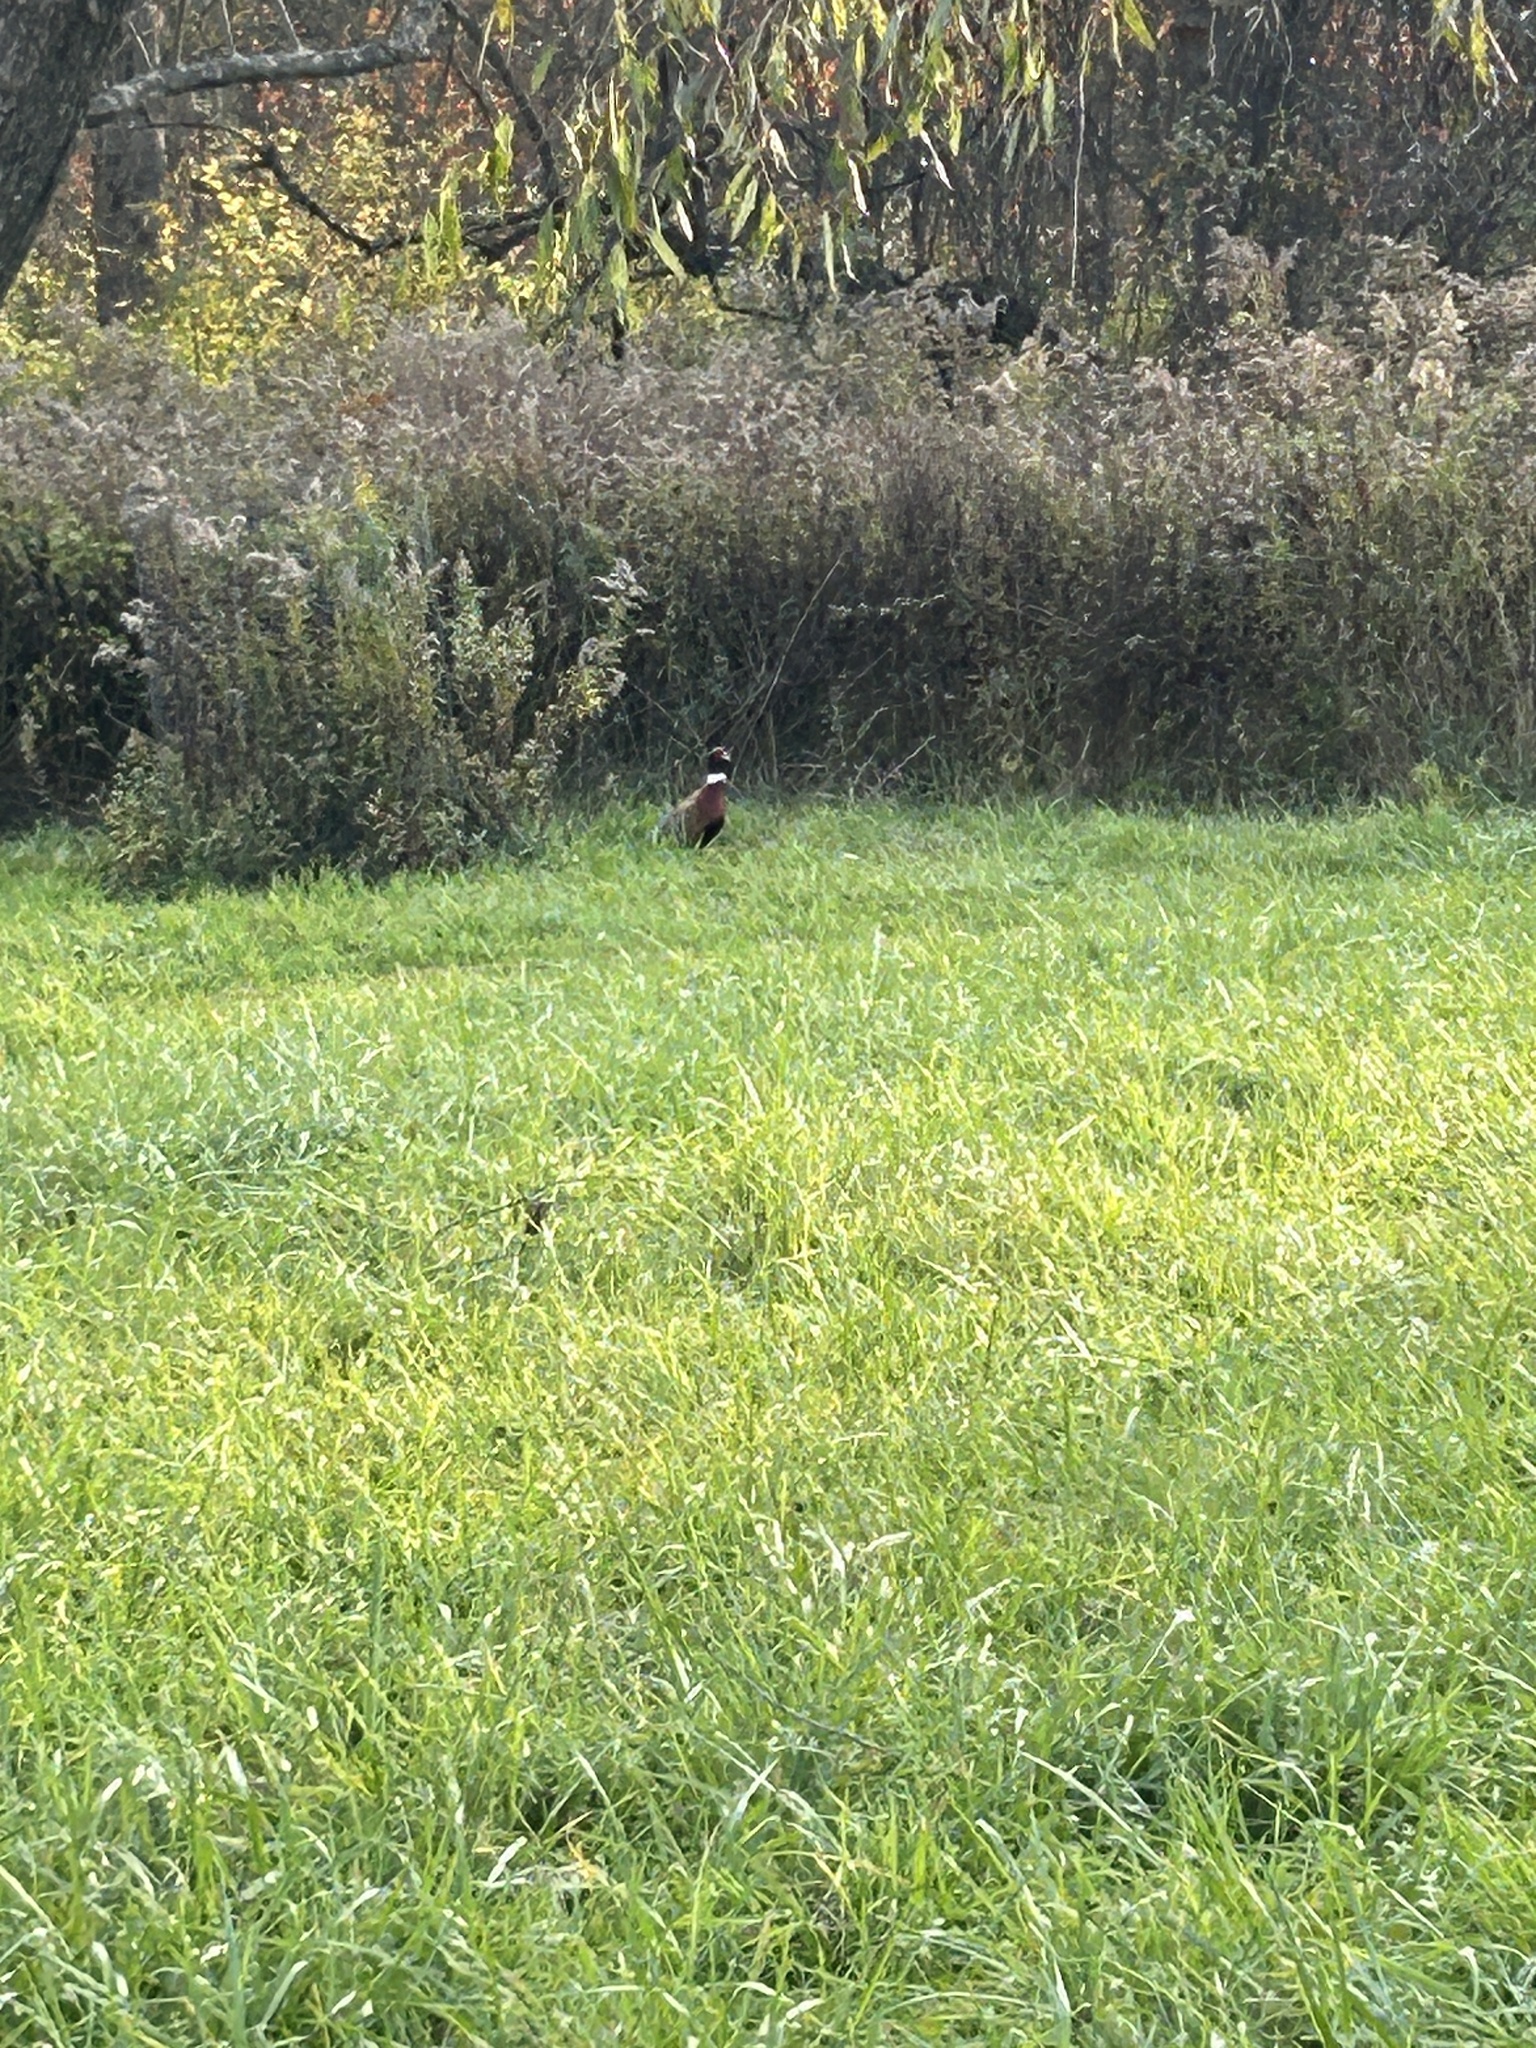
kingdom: Animalia
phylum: Chordata
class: Aves
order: Galliformes
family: Phasianidae
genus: Phasianus
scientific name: Phasianus colchicus
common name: Common pheasant
